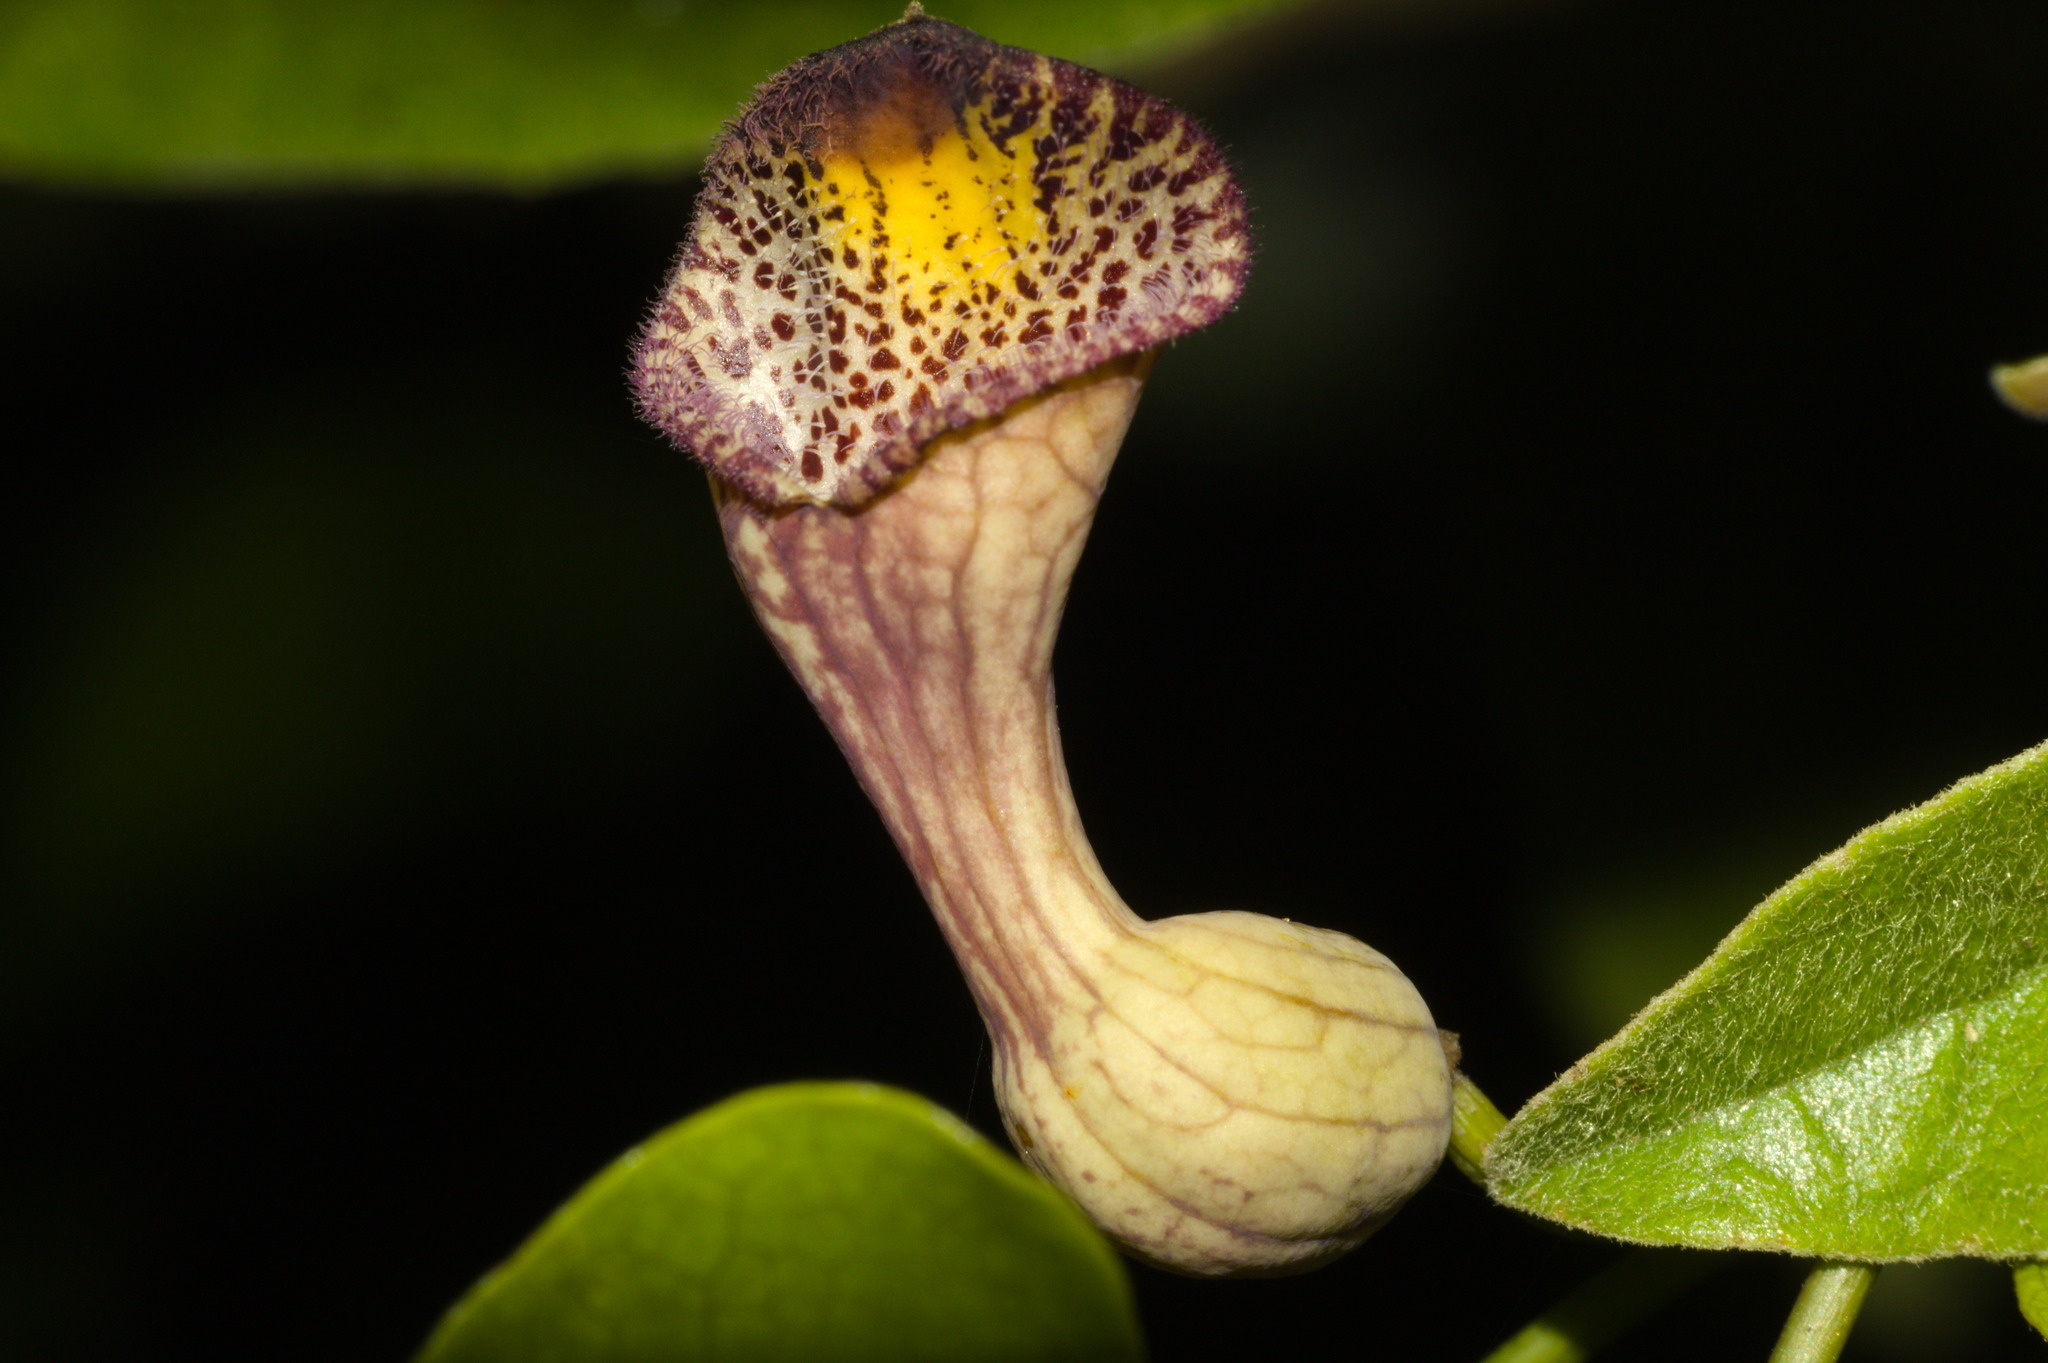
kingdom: Plantae
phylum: Tracheophyta
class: Magnoliopsida
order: Piperales
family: Aristolochiaceae
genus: Aristolochia
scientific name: Aristolochia triangularis
